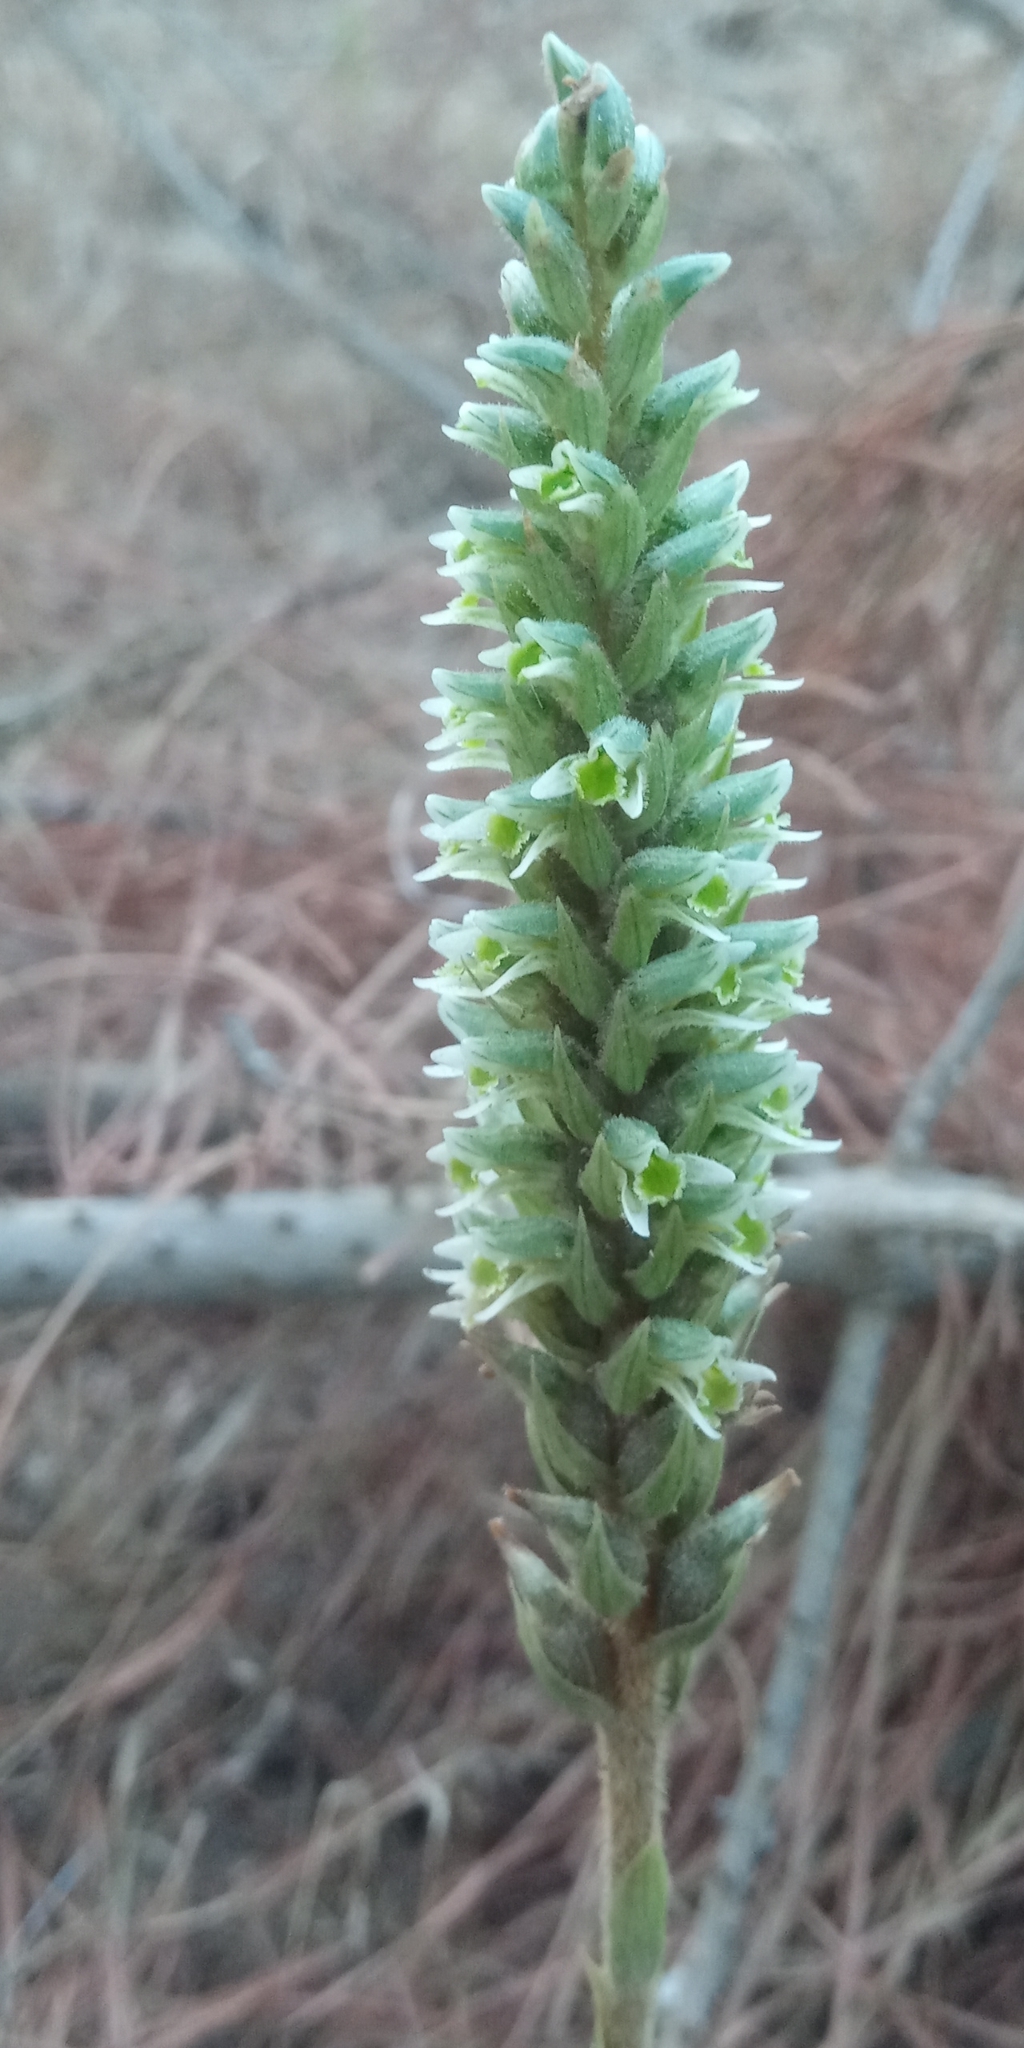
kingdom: Plantae
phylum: Tracheophyta
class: Liliopsida
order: Asparagales
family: Orchidaceae
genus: Brachystele
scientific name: Brachystele unilateralis
